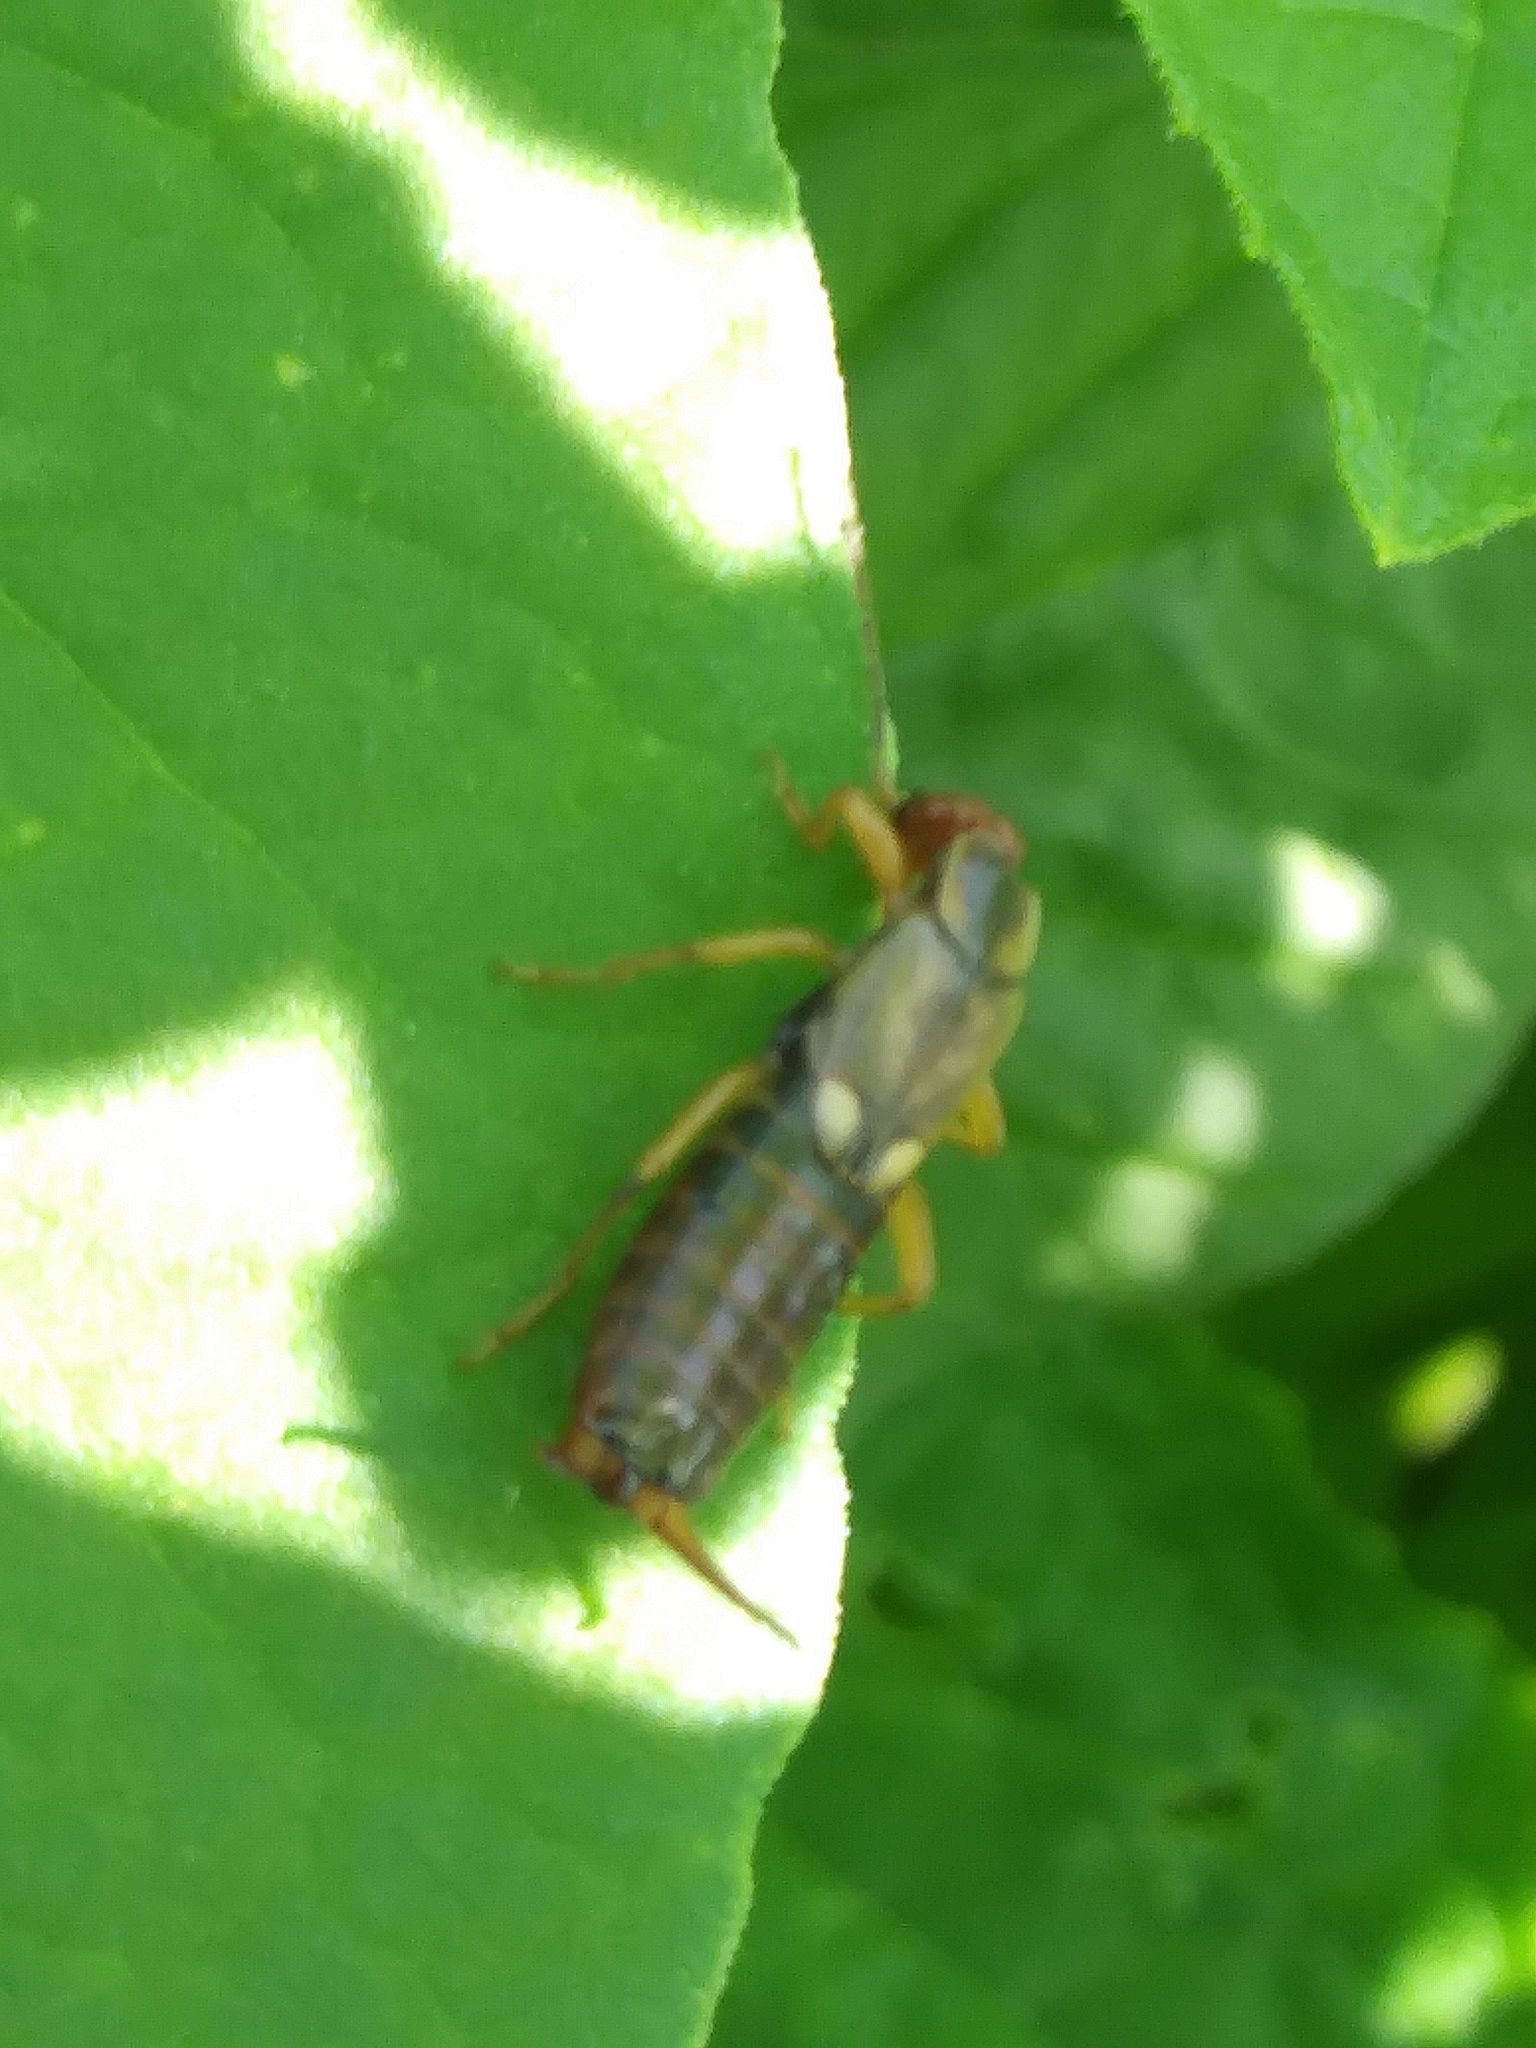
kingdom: Animalia
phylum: Arthropoda
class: Insecta
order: Dermaptera
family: Forficulidae
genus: Forficula
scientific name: Forficula
